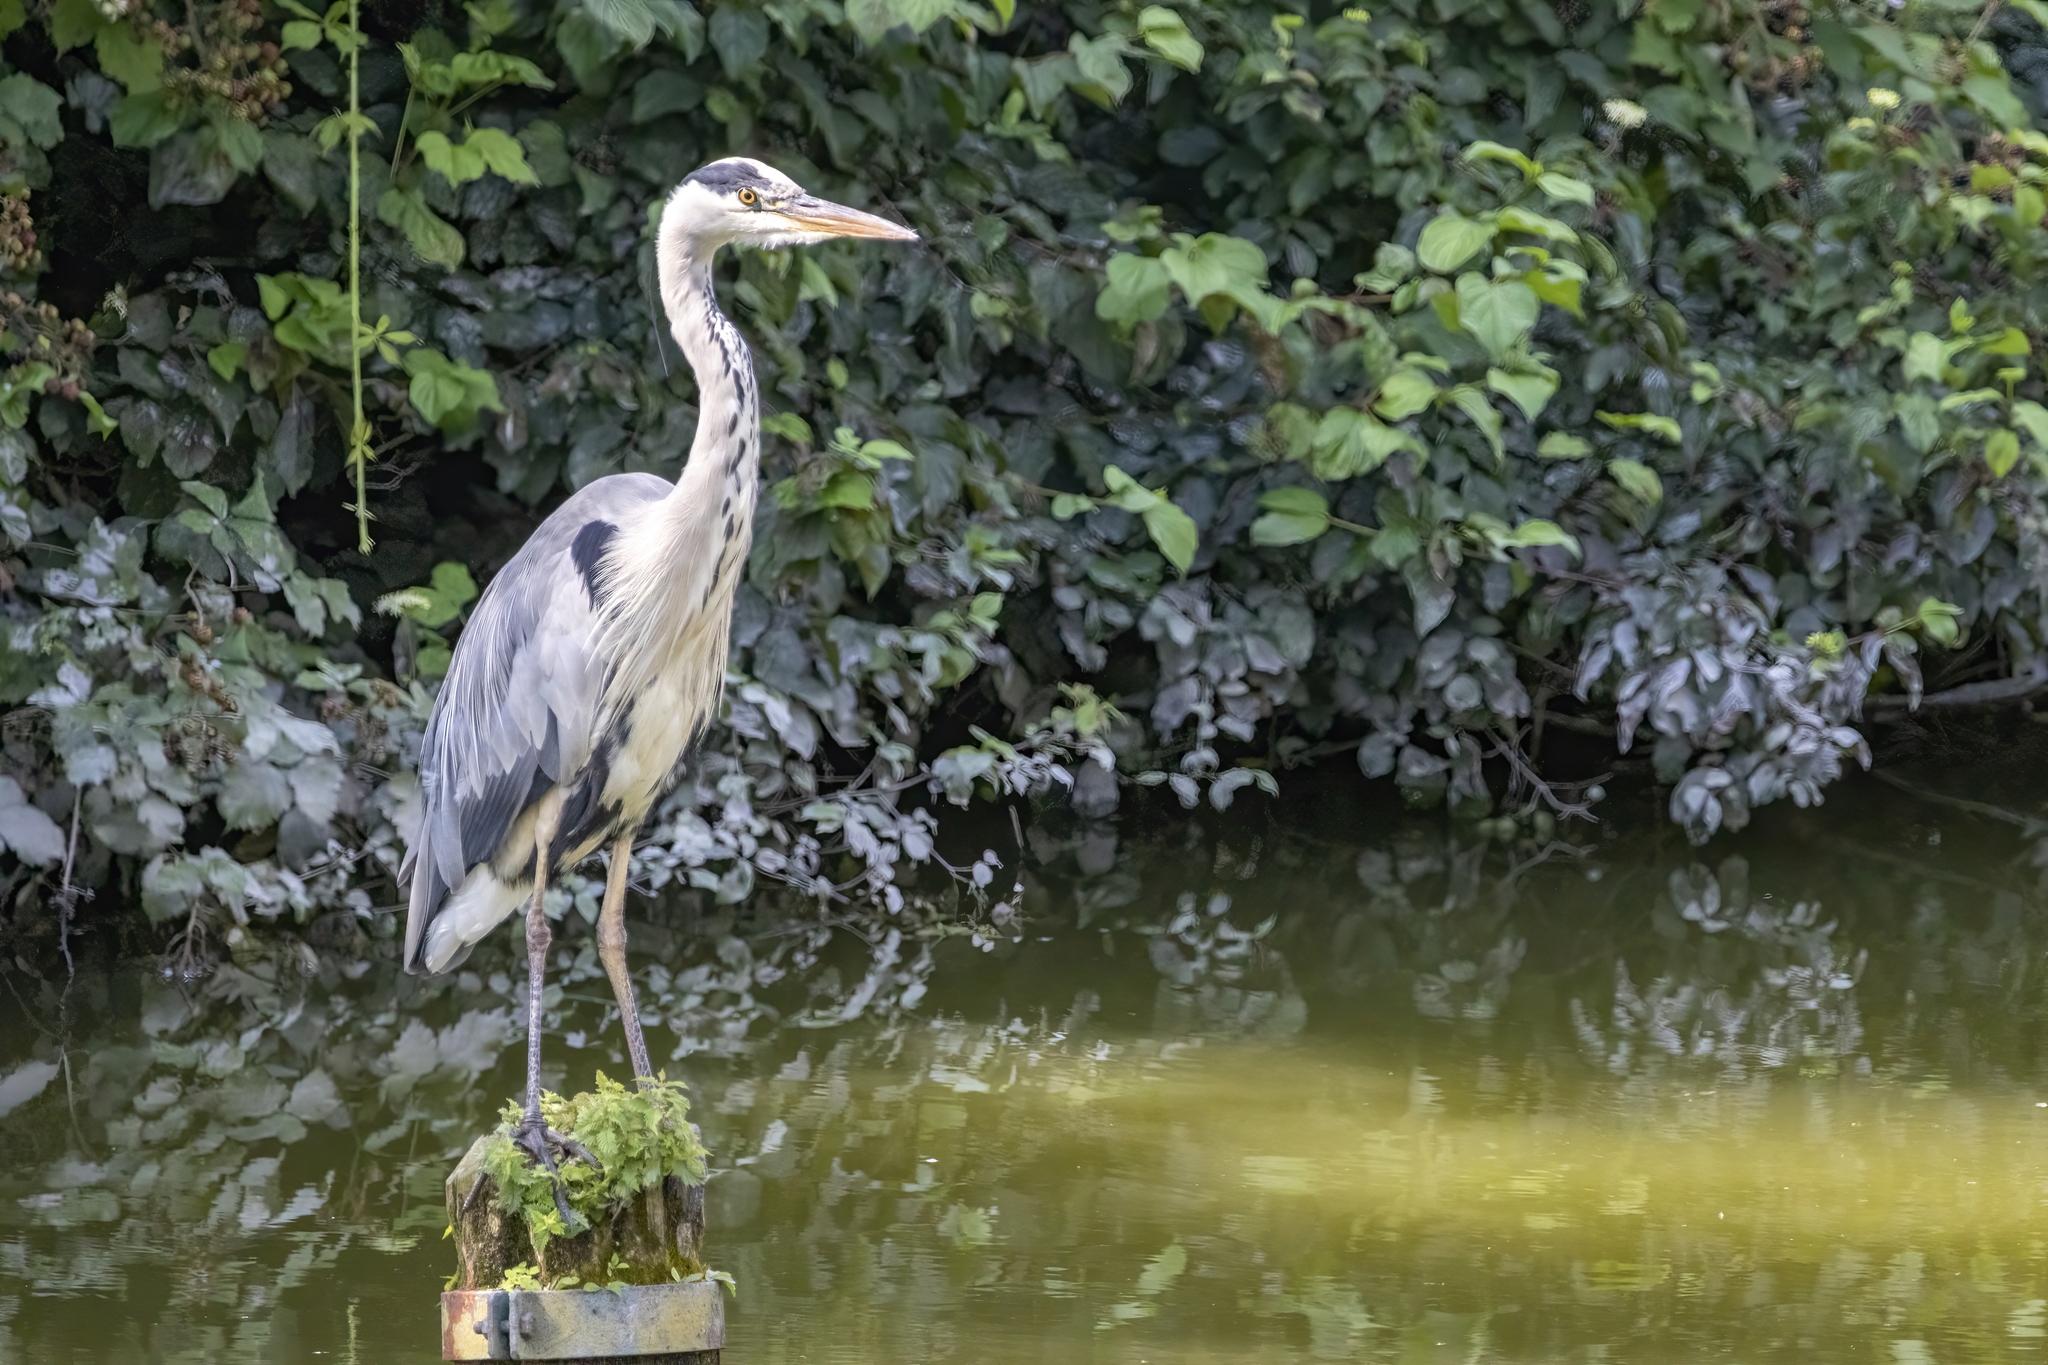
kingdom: Animalia
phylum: Chordata
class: Aves
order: Pelecaniformes
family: Ardeidae
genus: Ardea
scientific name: Ardea cinerea
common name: Grey heron
